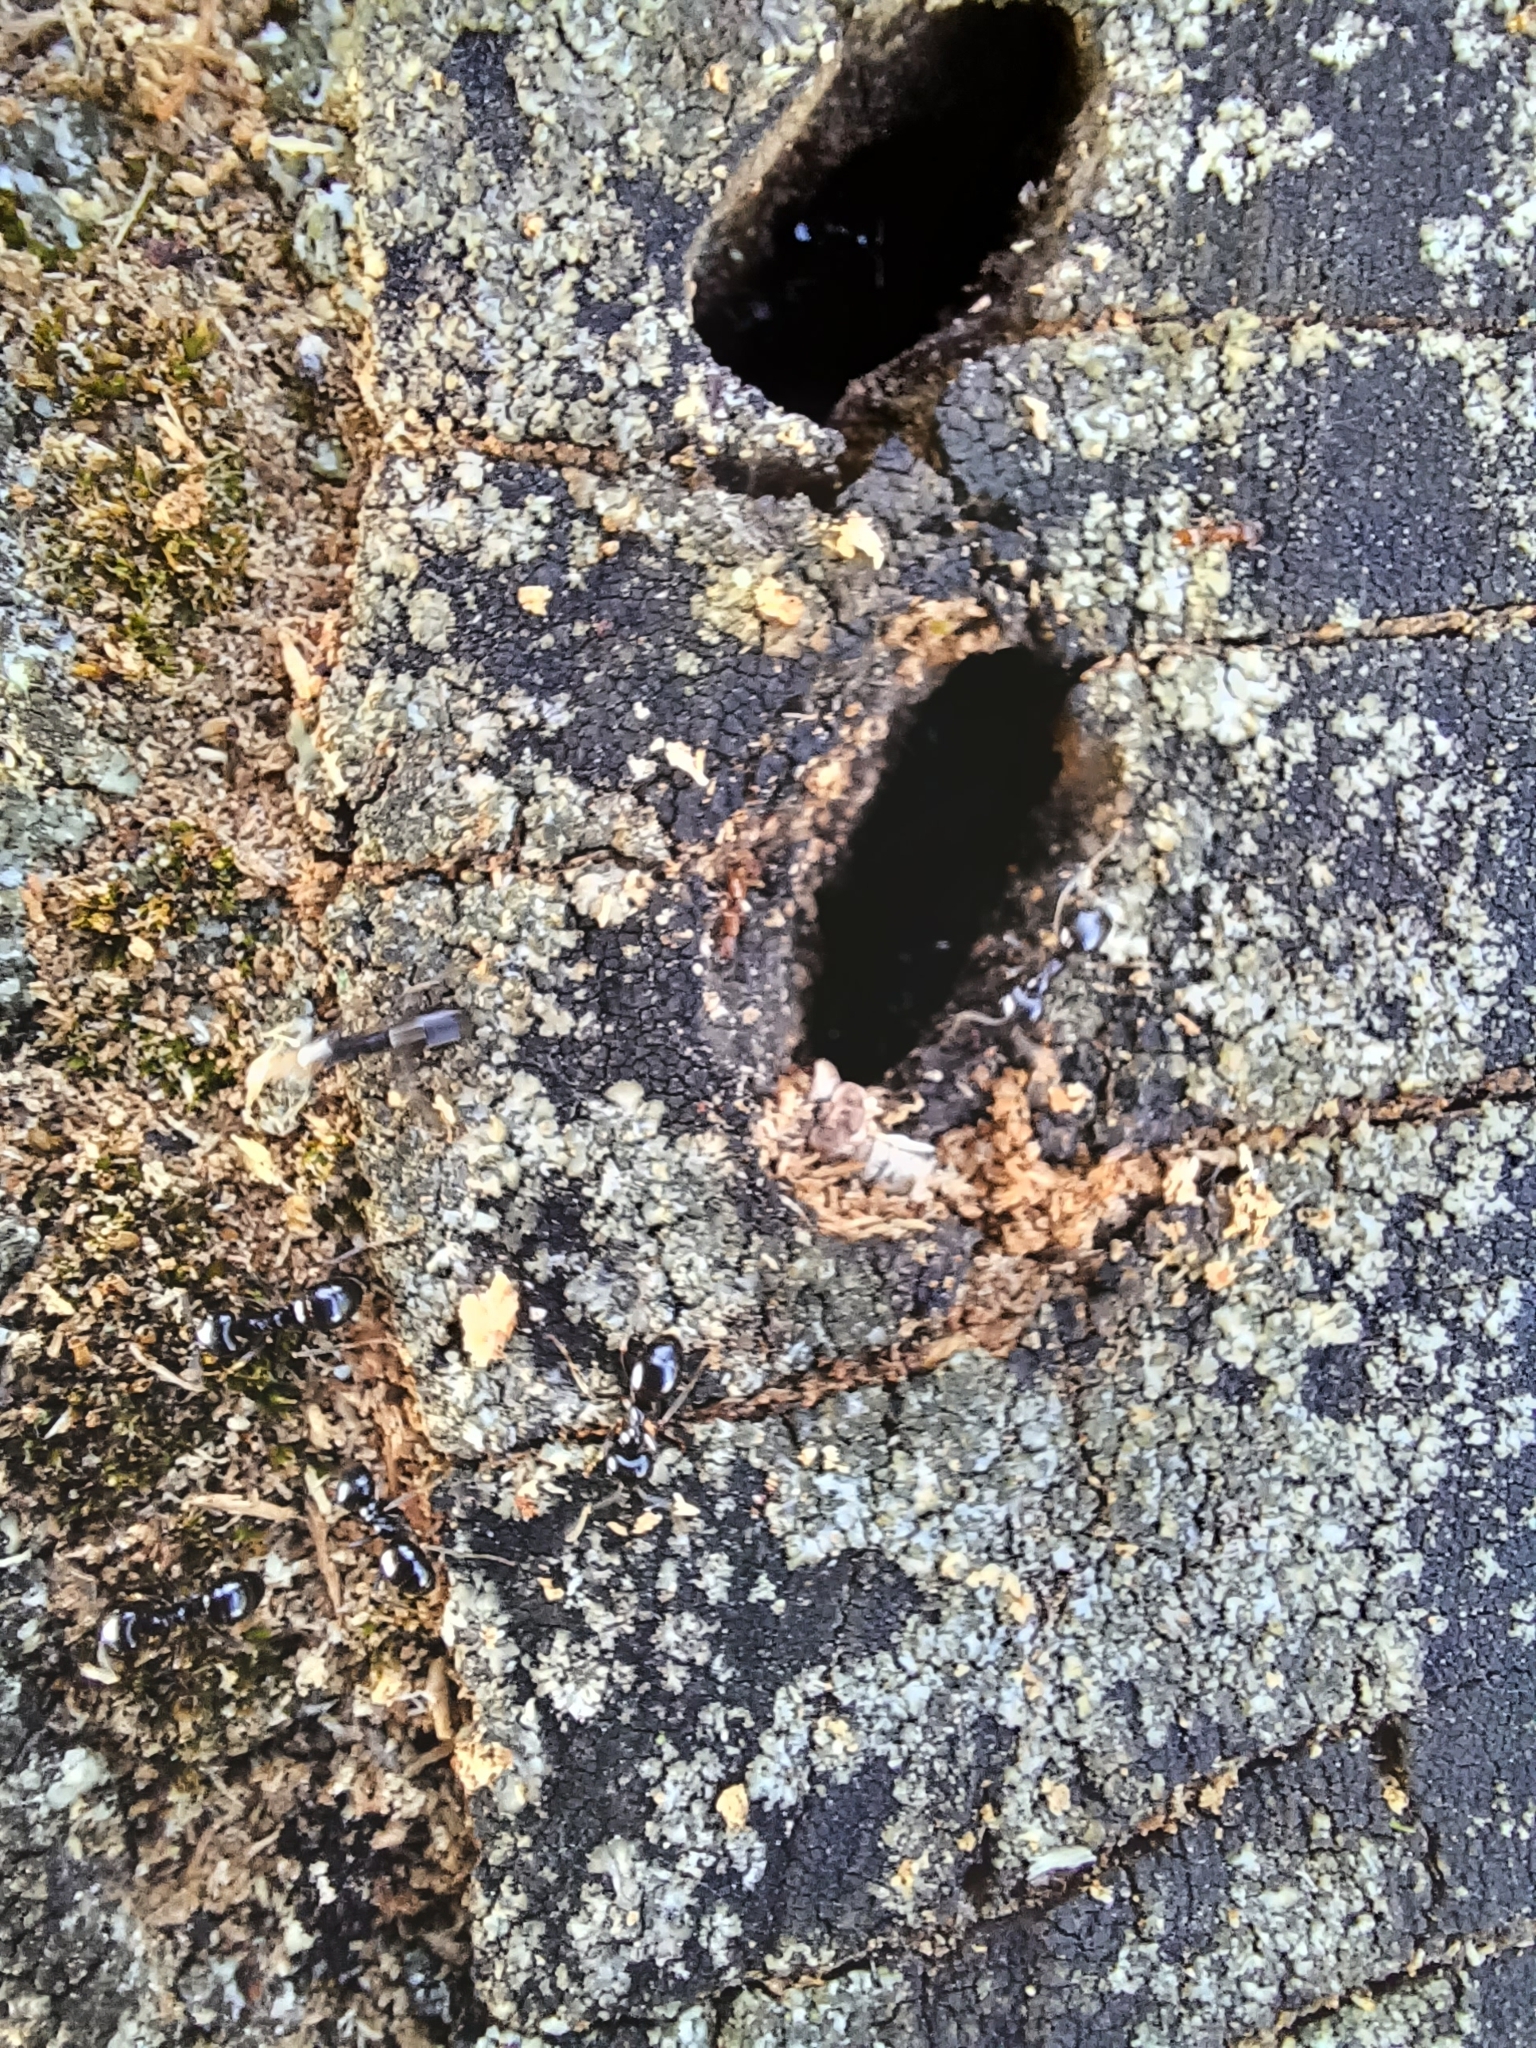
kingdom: Animalia
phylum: Arthropoda
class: Insecta
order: Hymenoptera
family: Formicidae
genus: Lasius
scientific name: Lasius fuliginosus
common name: Jet ant
